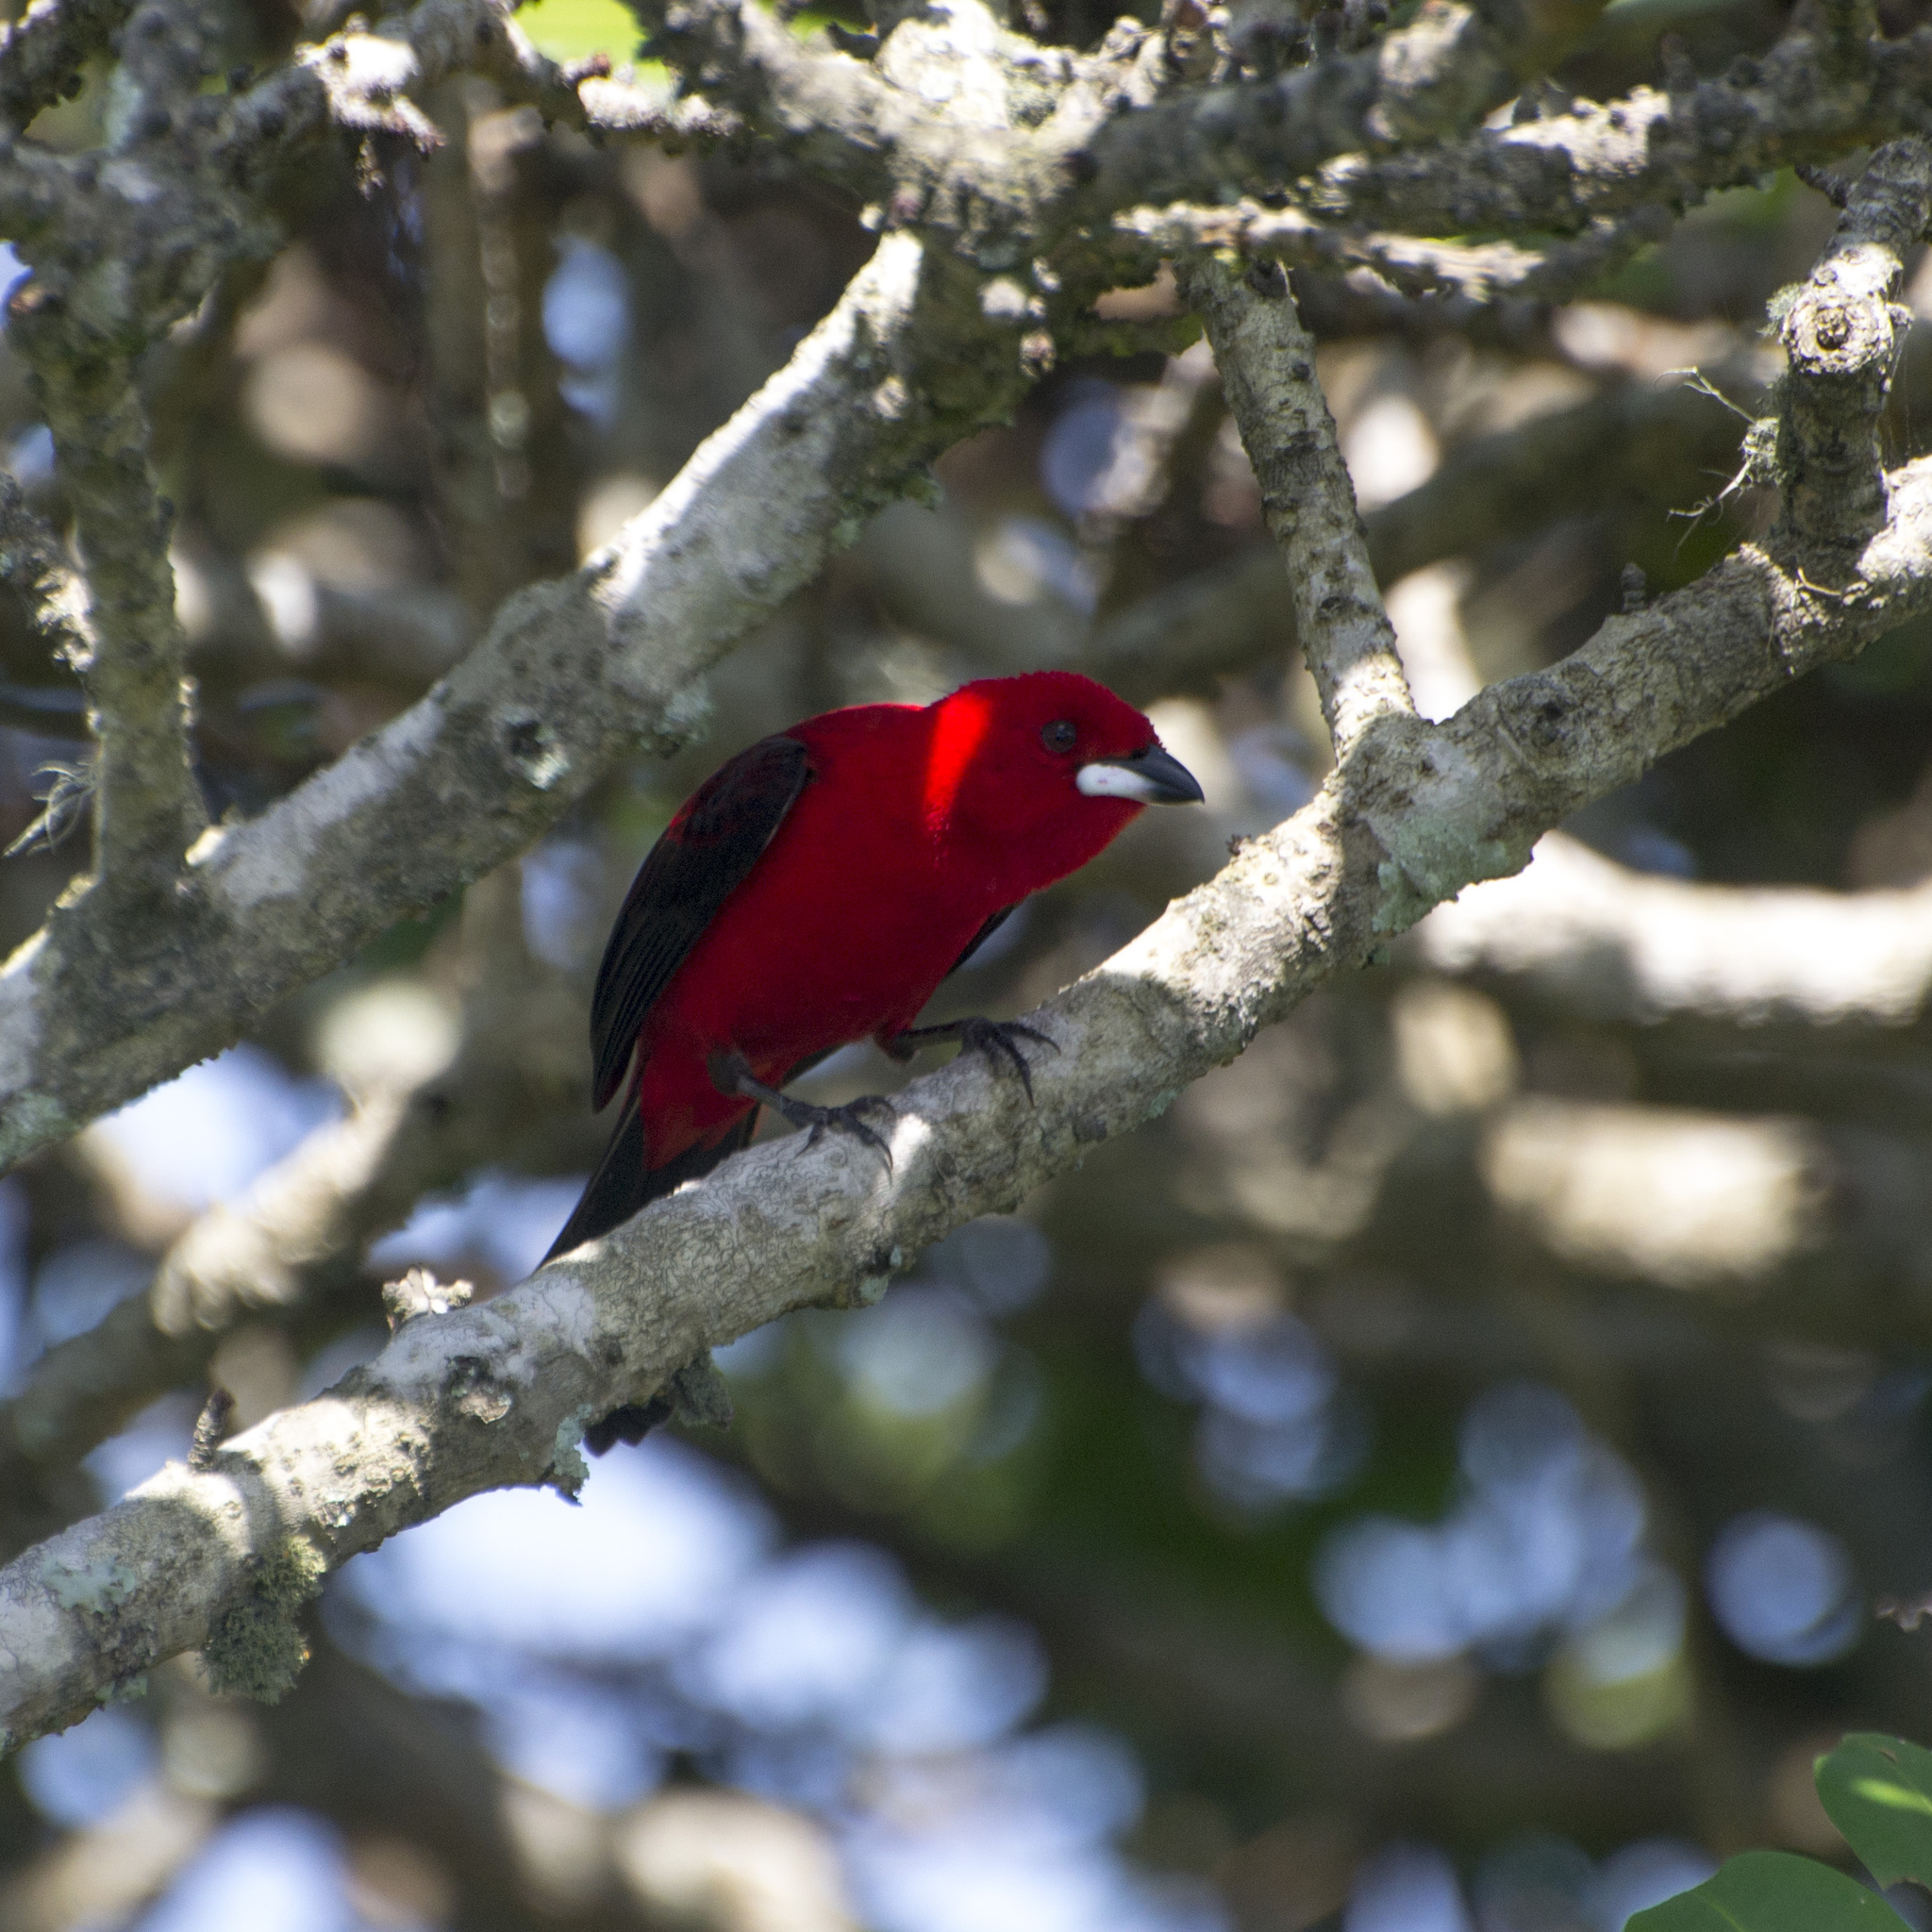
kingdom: Animalia
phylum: Chordata
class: Aves
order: Passeriformes
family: Thraupidae
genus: Ramphocelus
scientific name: Ramphocelus bresilia
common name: Brazilian tanager
